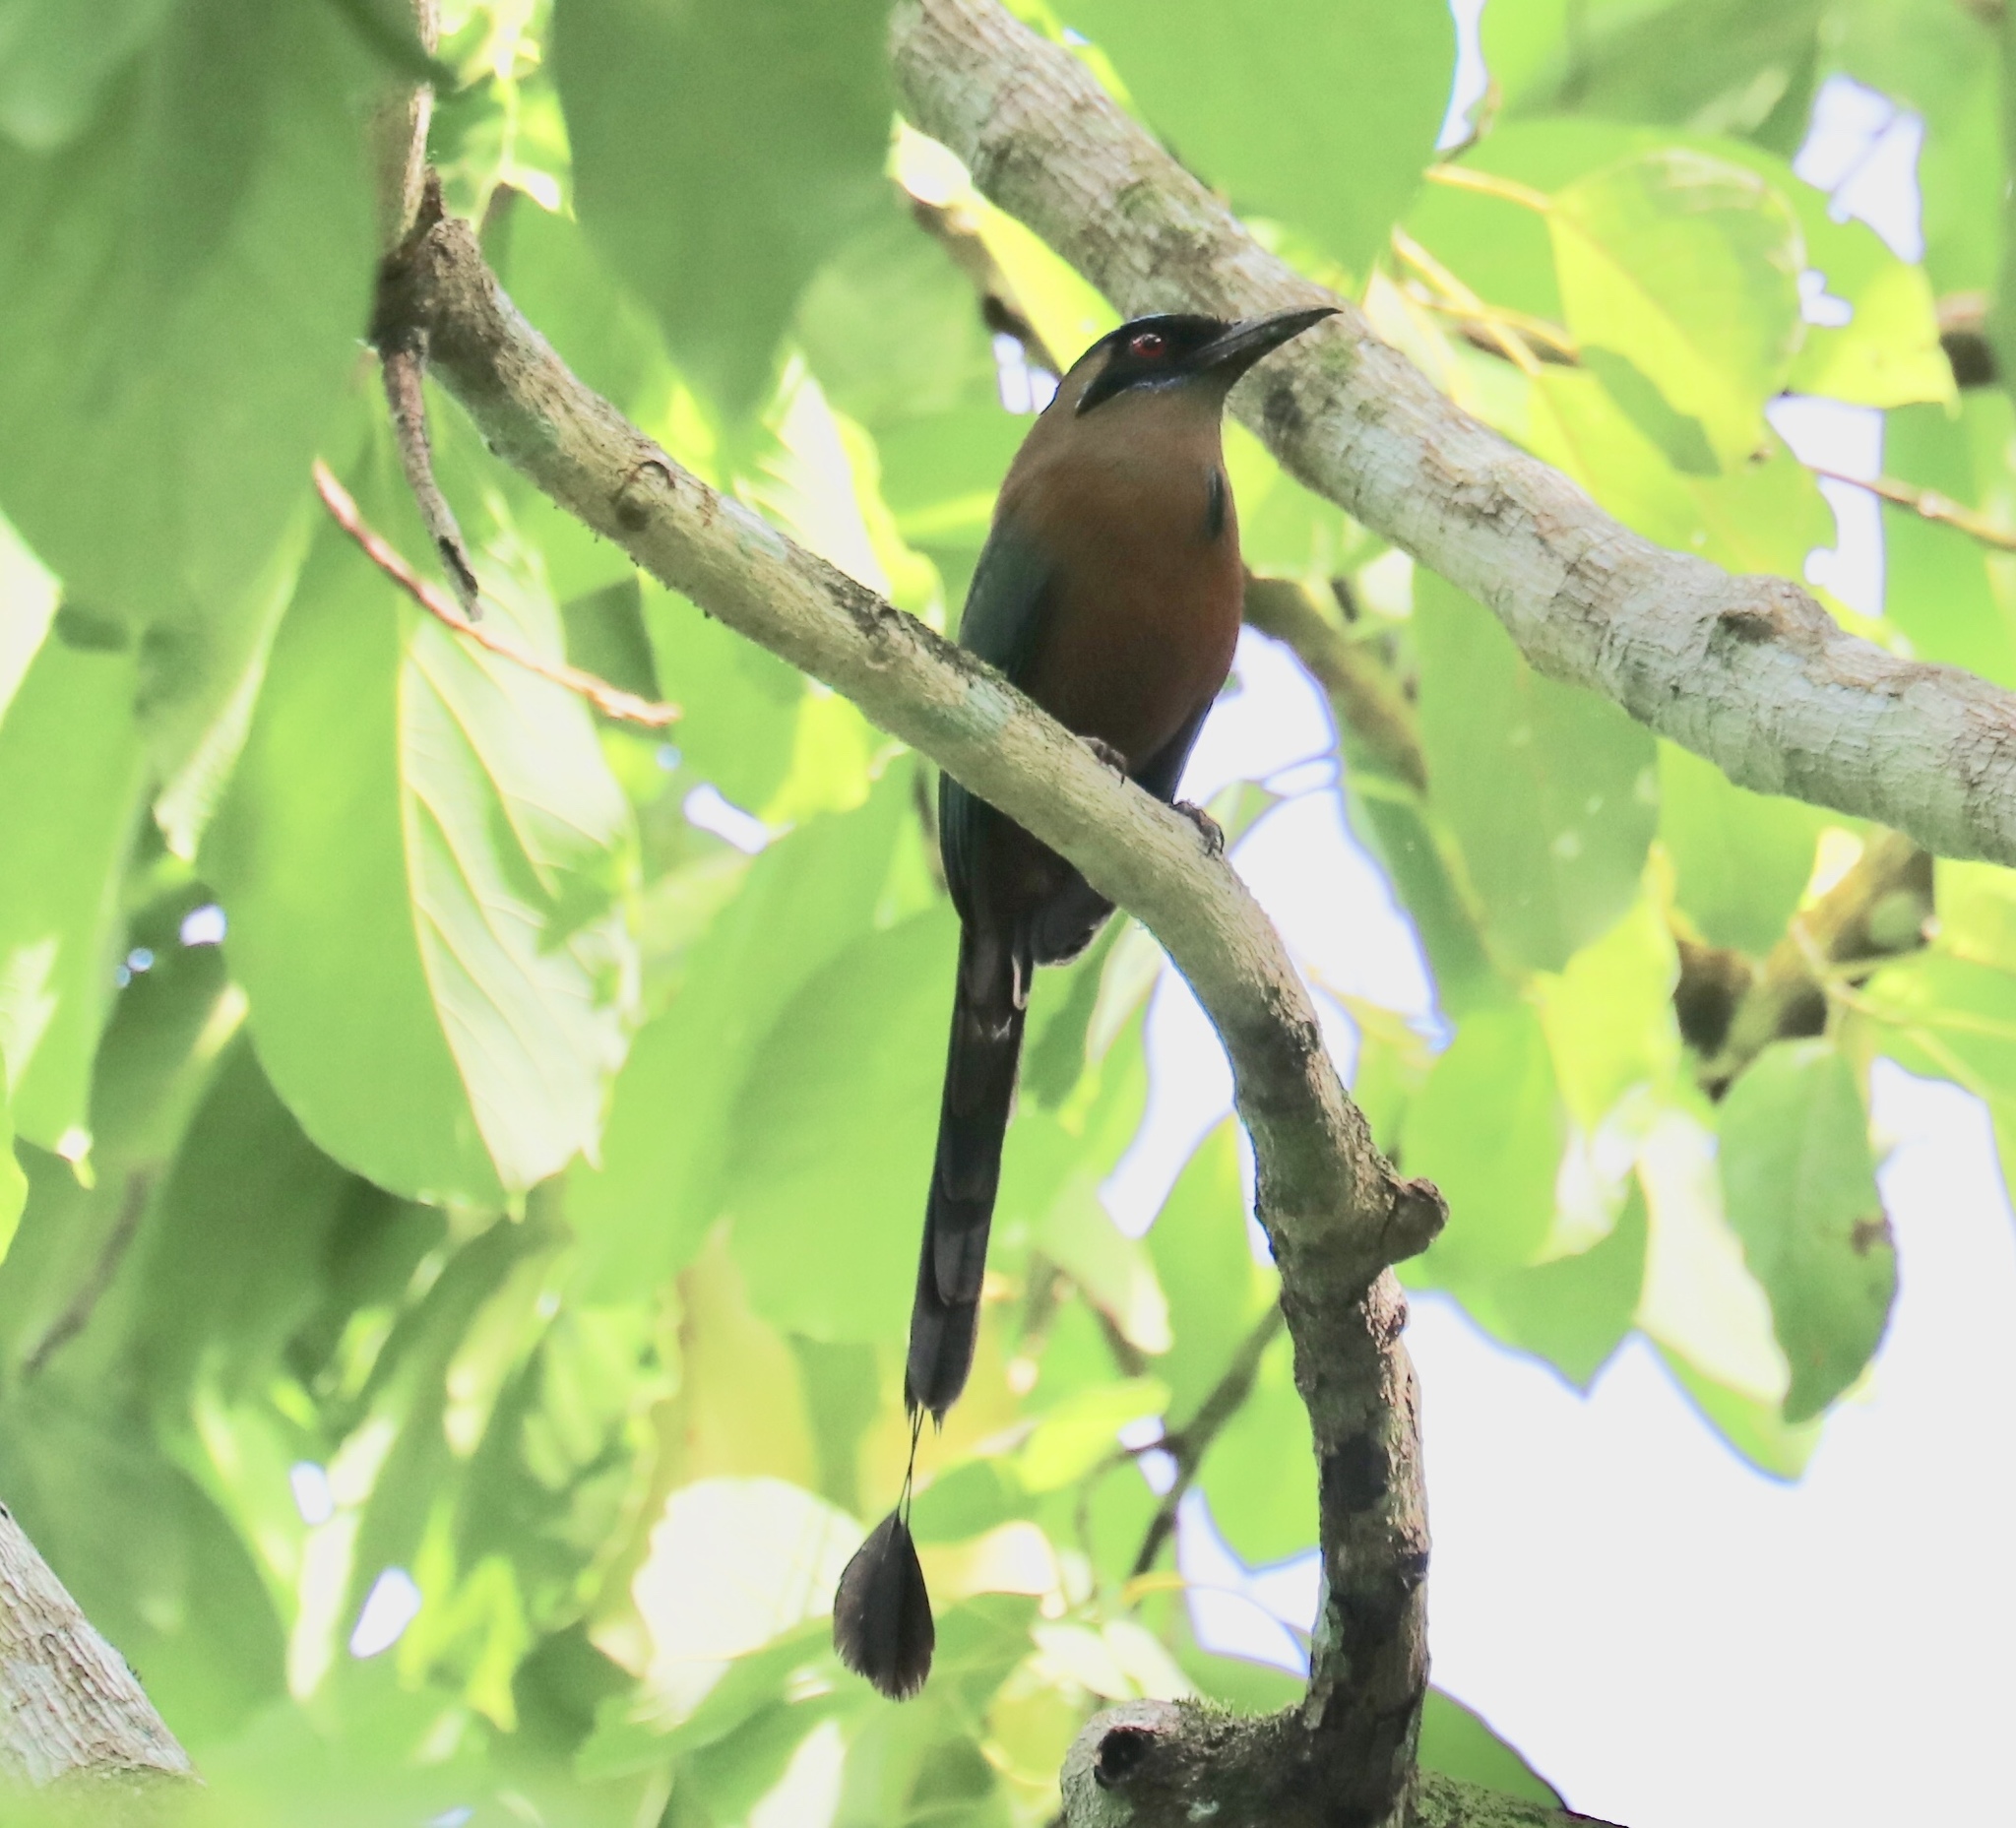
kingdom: Animalia
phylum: Chordata
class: Aves
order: Coraciiformes
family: Momotidae
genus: Momotus
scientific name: Momotus subrufescens
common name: Whooping motmot
